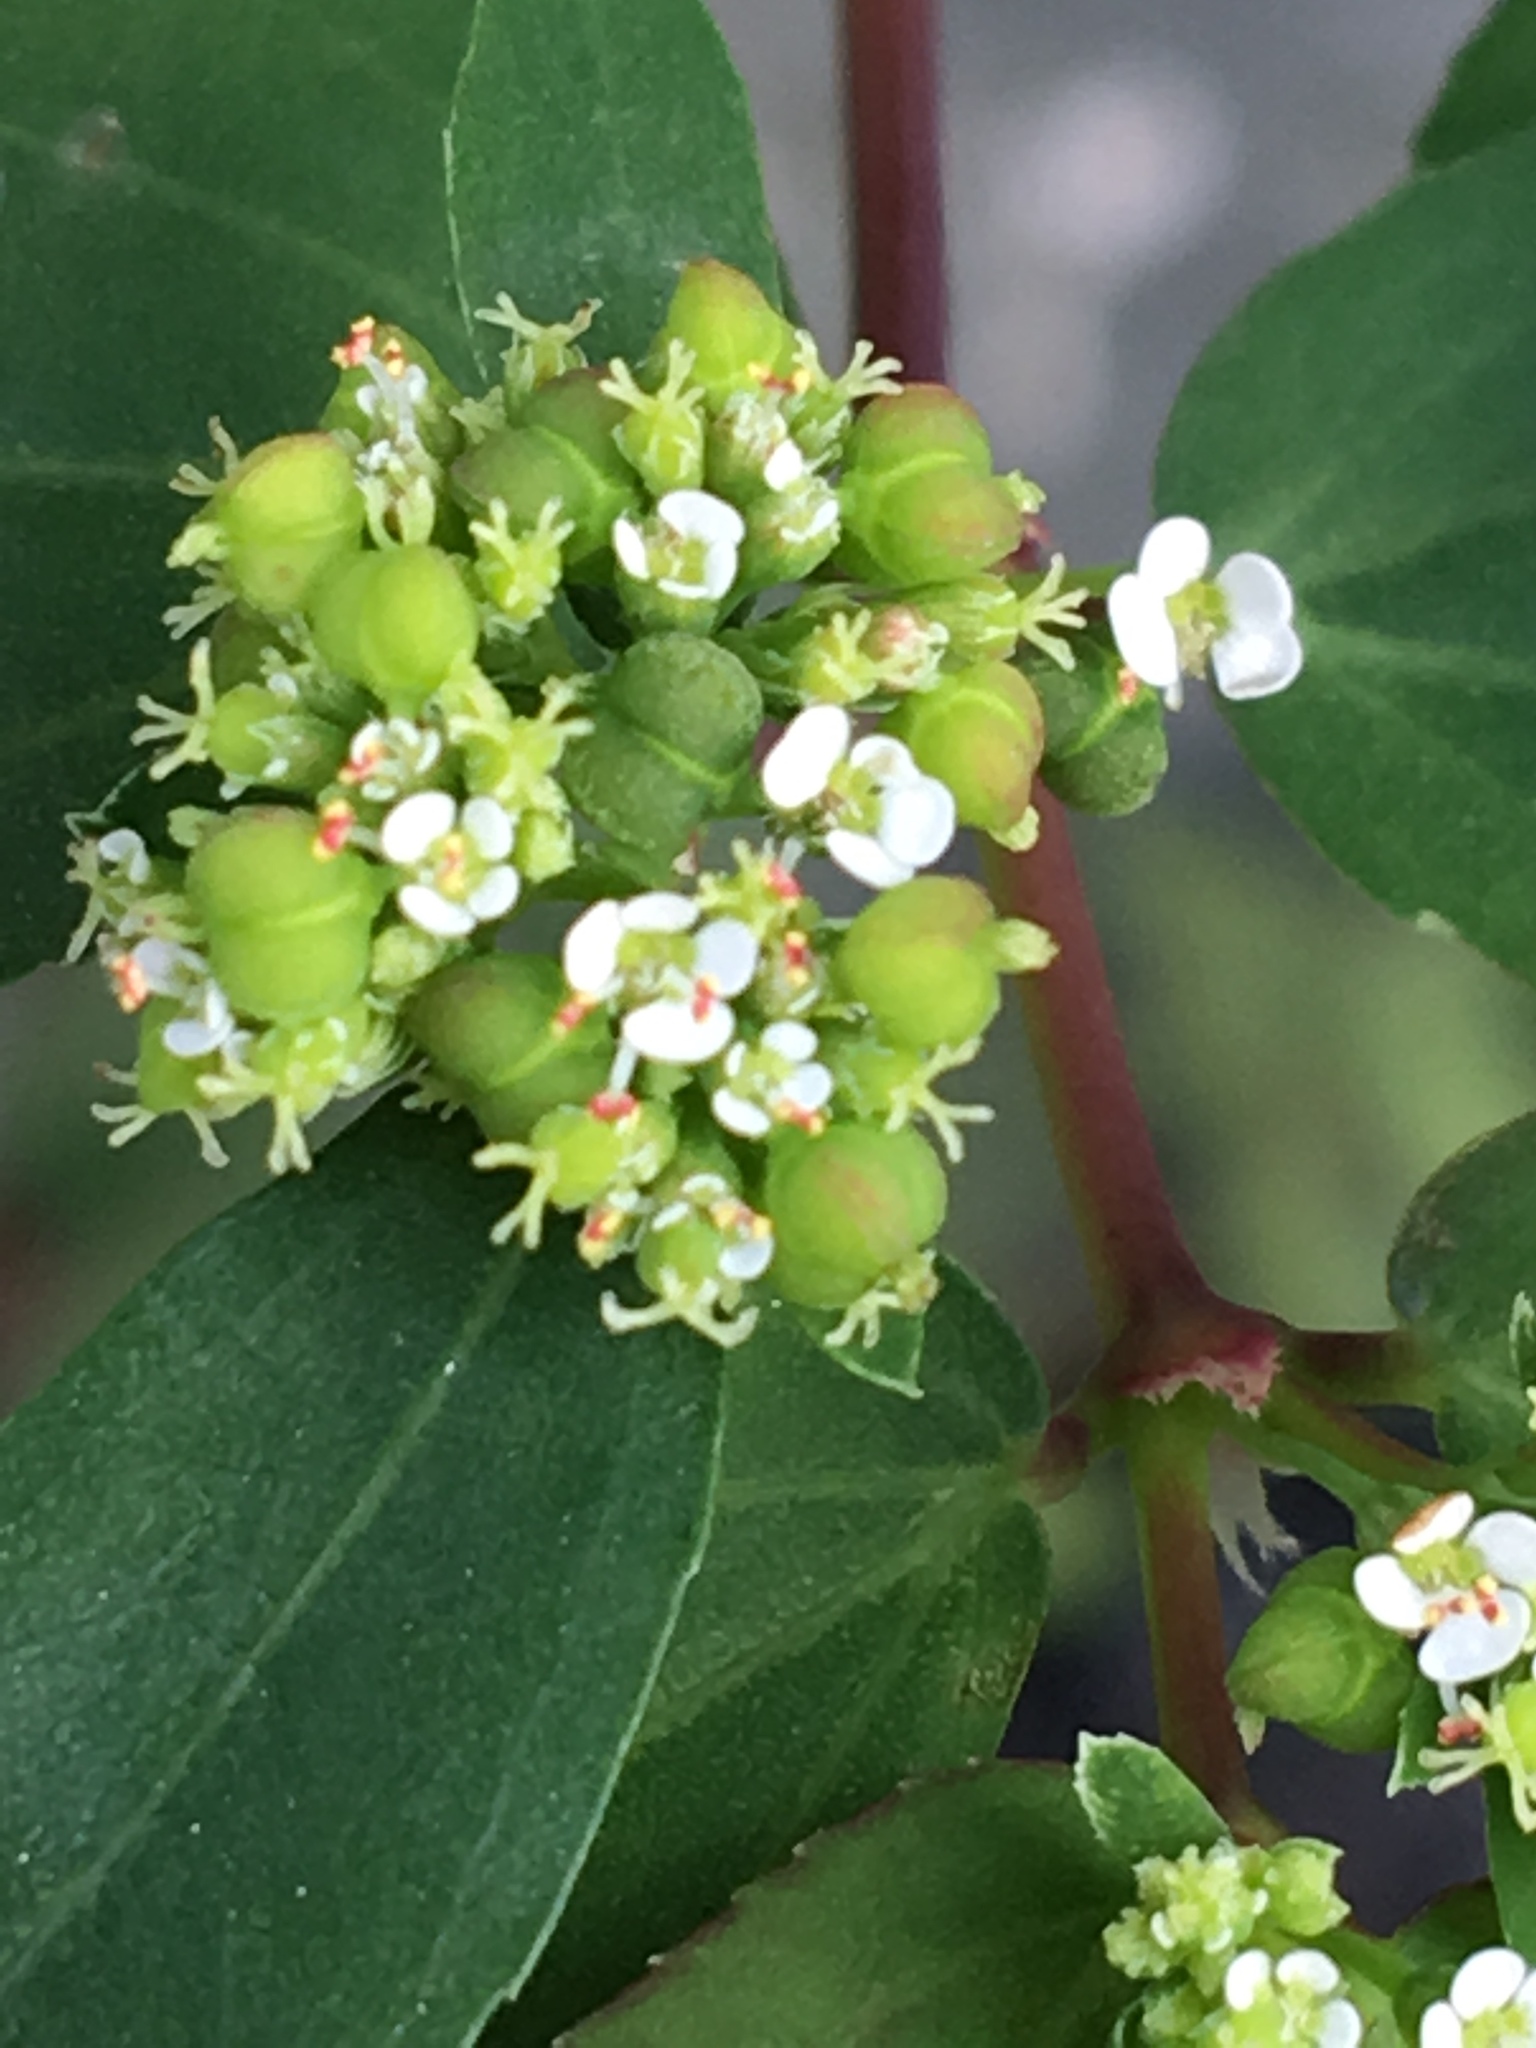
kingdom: Plantae
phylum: Tracheophyta
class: Magnoliopsida
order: Malpighiales
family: Euphorbiaceae
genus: Euphorbia
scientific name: Euphorbia hypericifolia
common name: Graceful sandmat
